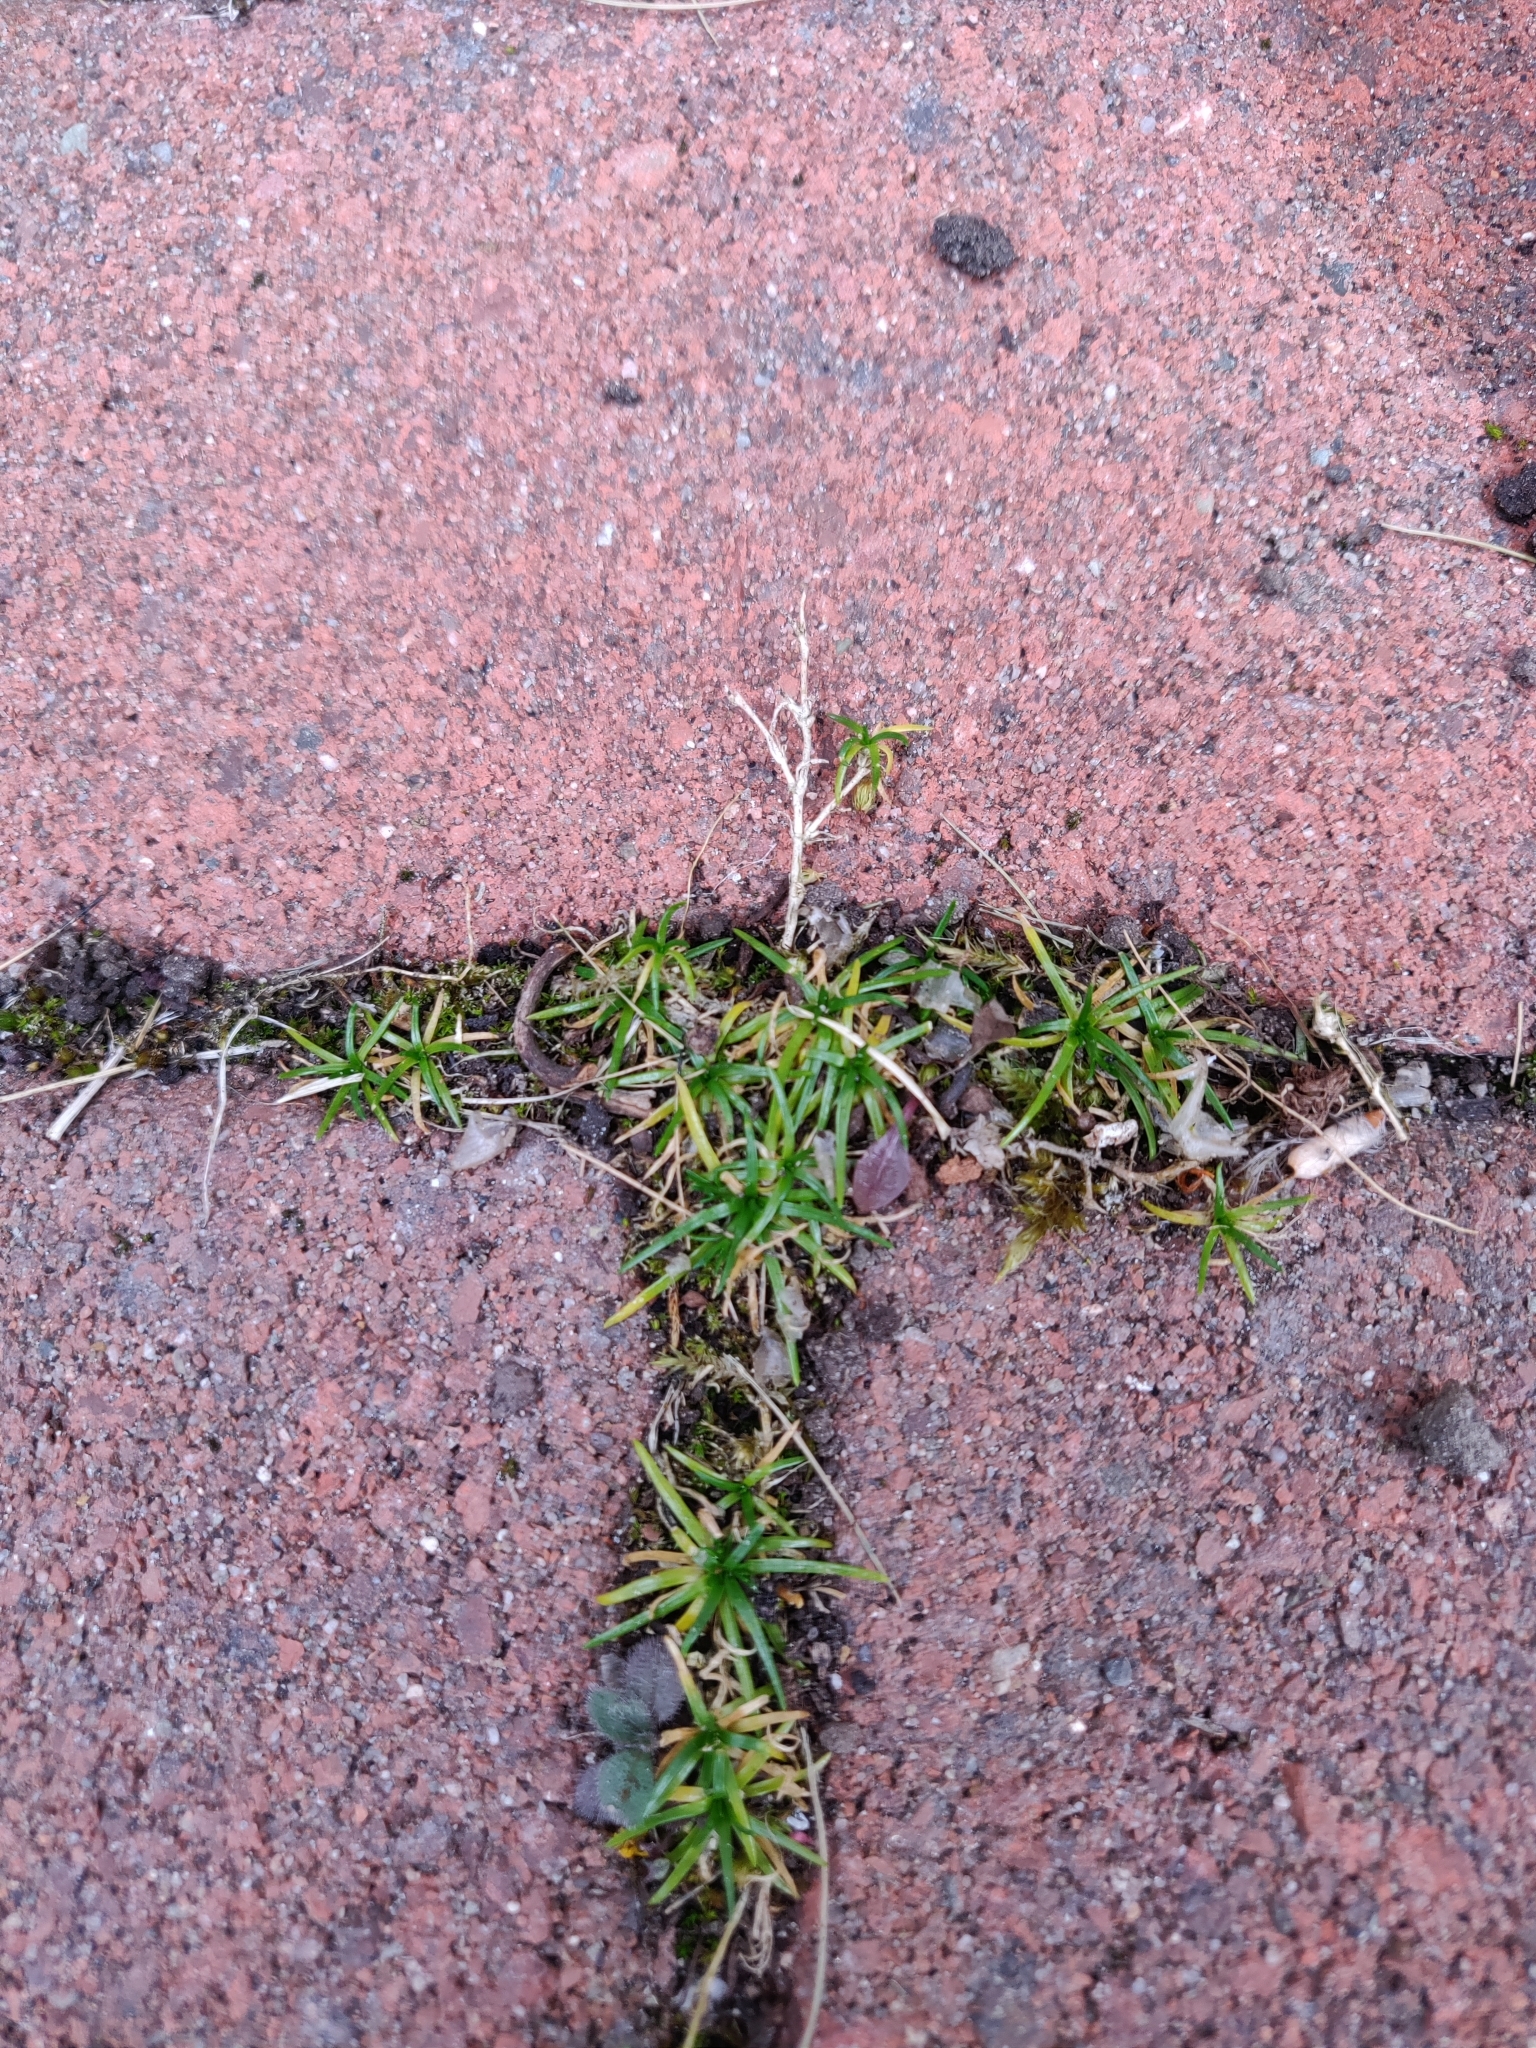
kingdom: Plantae
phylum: Tracheophyta
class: Magnoliopsida
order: Caryophyllales
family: Caryophyllaceae
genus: Sagina
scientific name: Sagina procumbens
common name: Procumbent pearlwort
